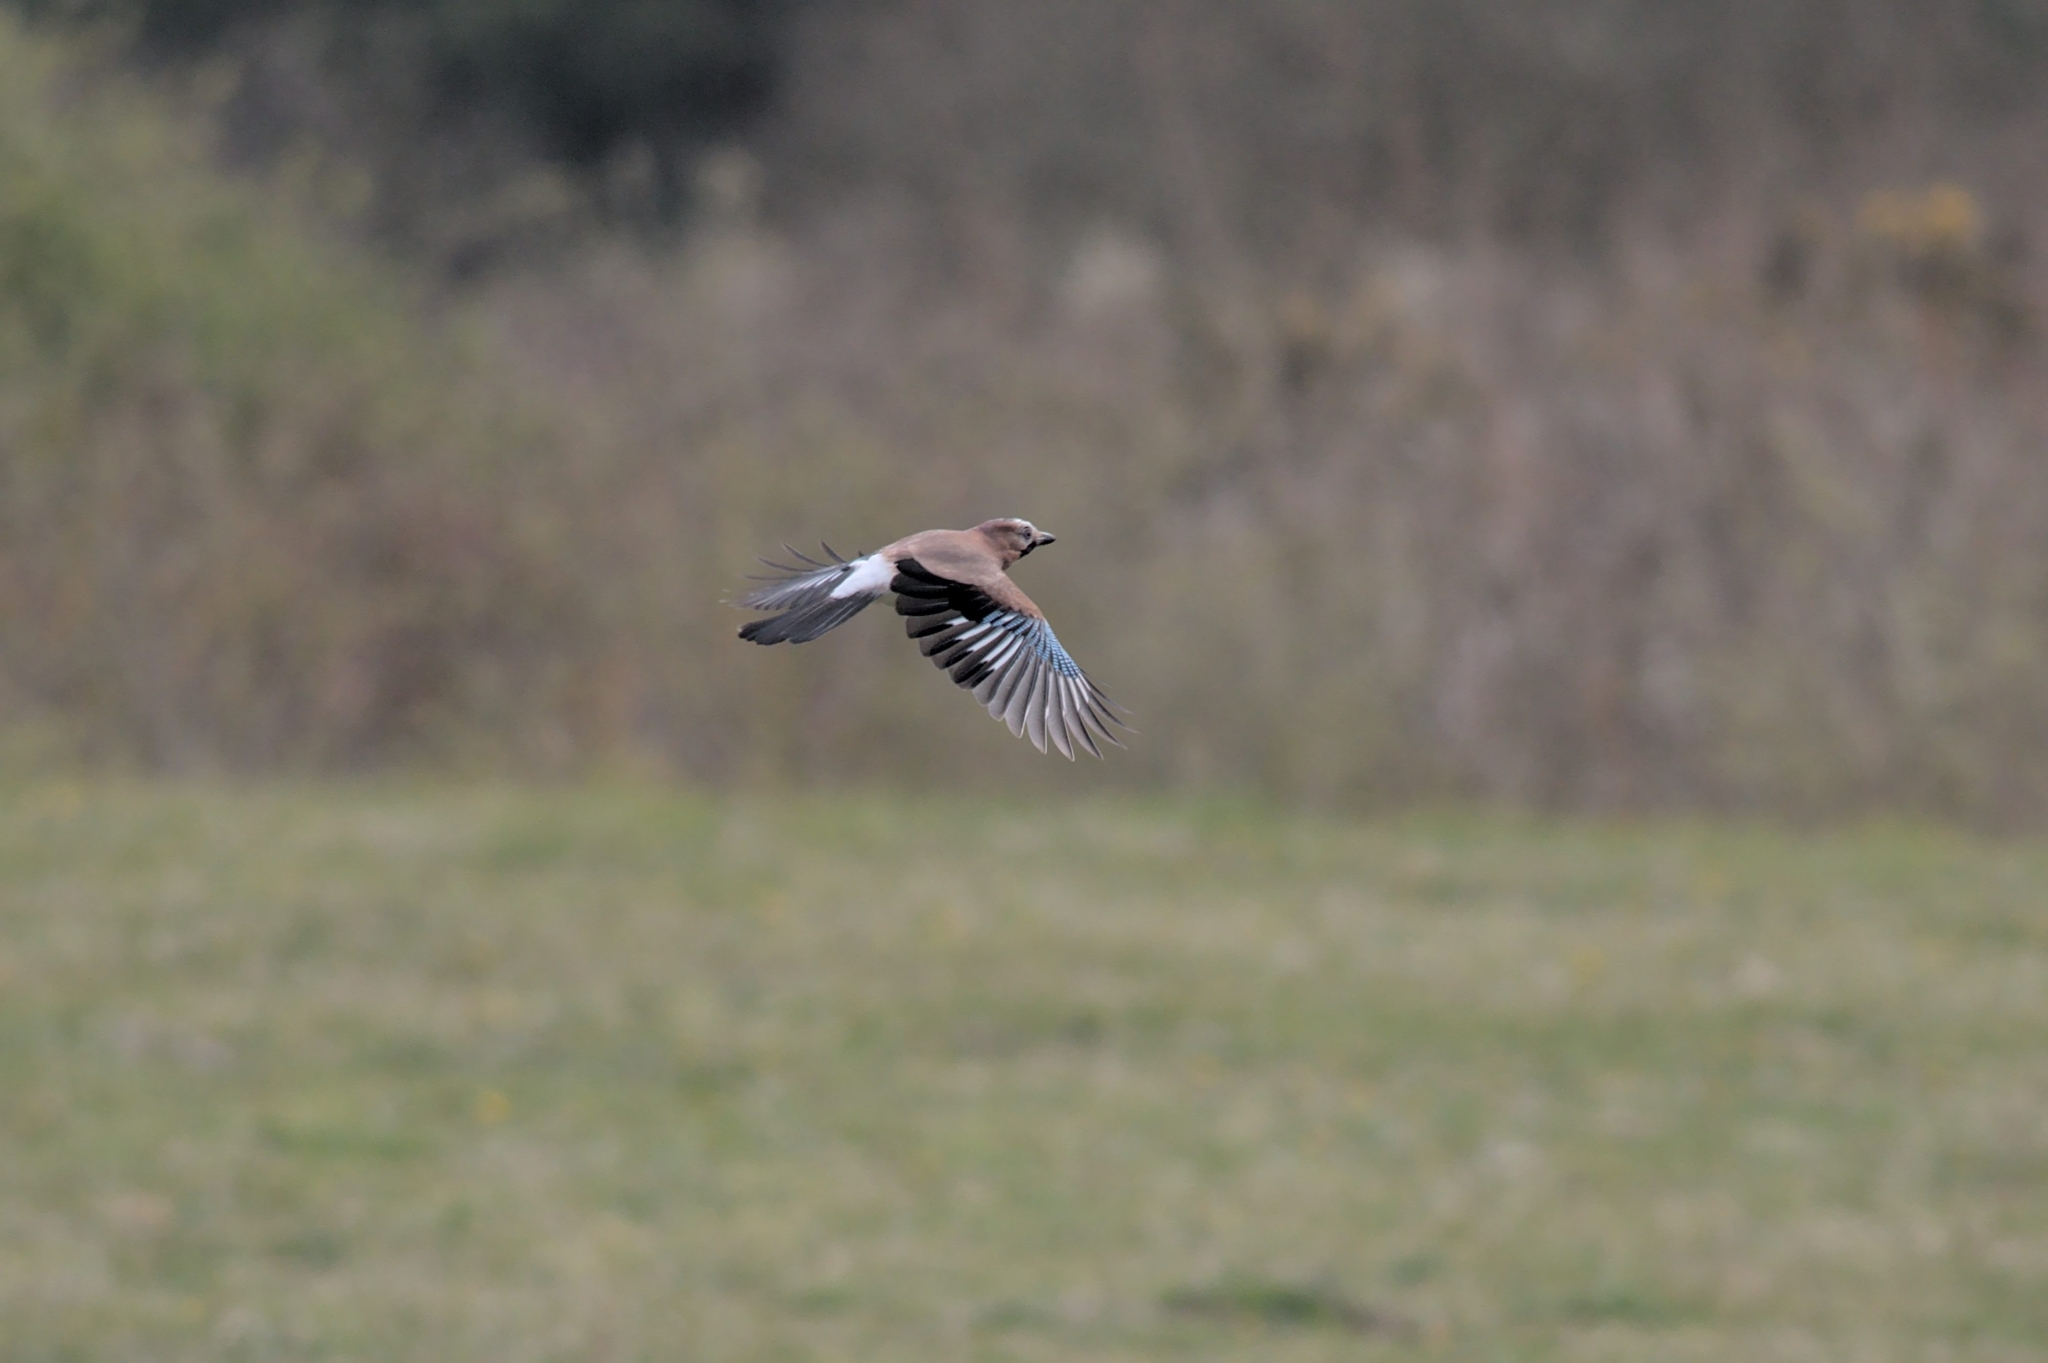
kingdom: Animalia
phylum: Chordata
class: Aves
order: Passeriformes
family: Corvidae
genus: Garrulus
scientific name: Garrulus glandarius
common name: Eurasian jay
